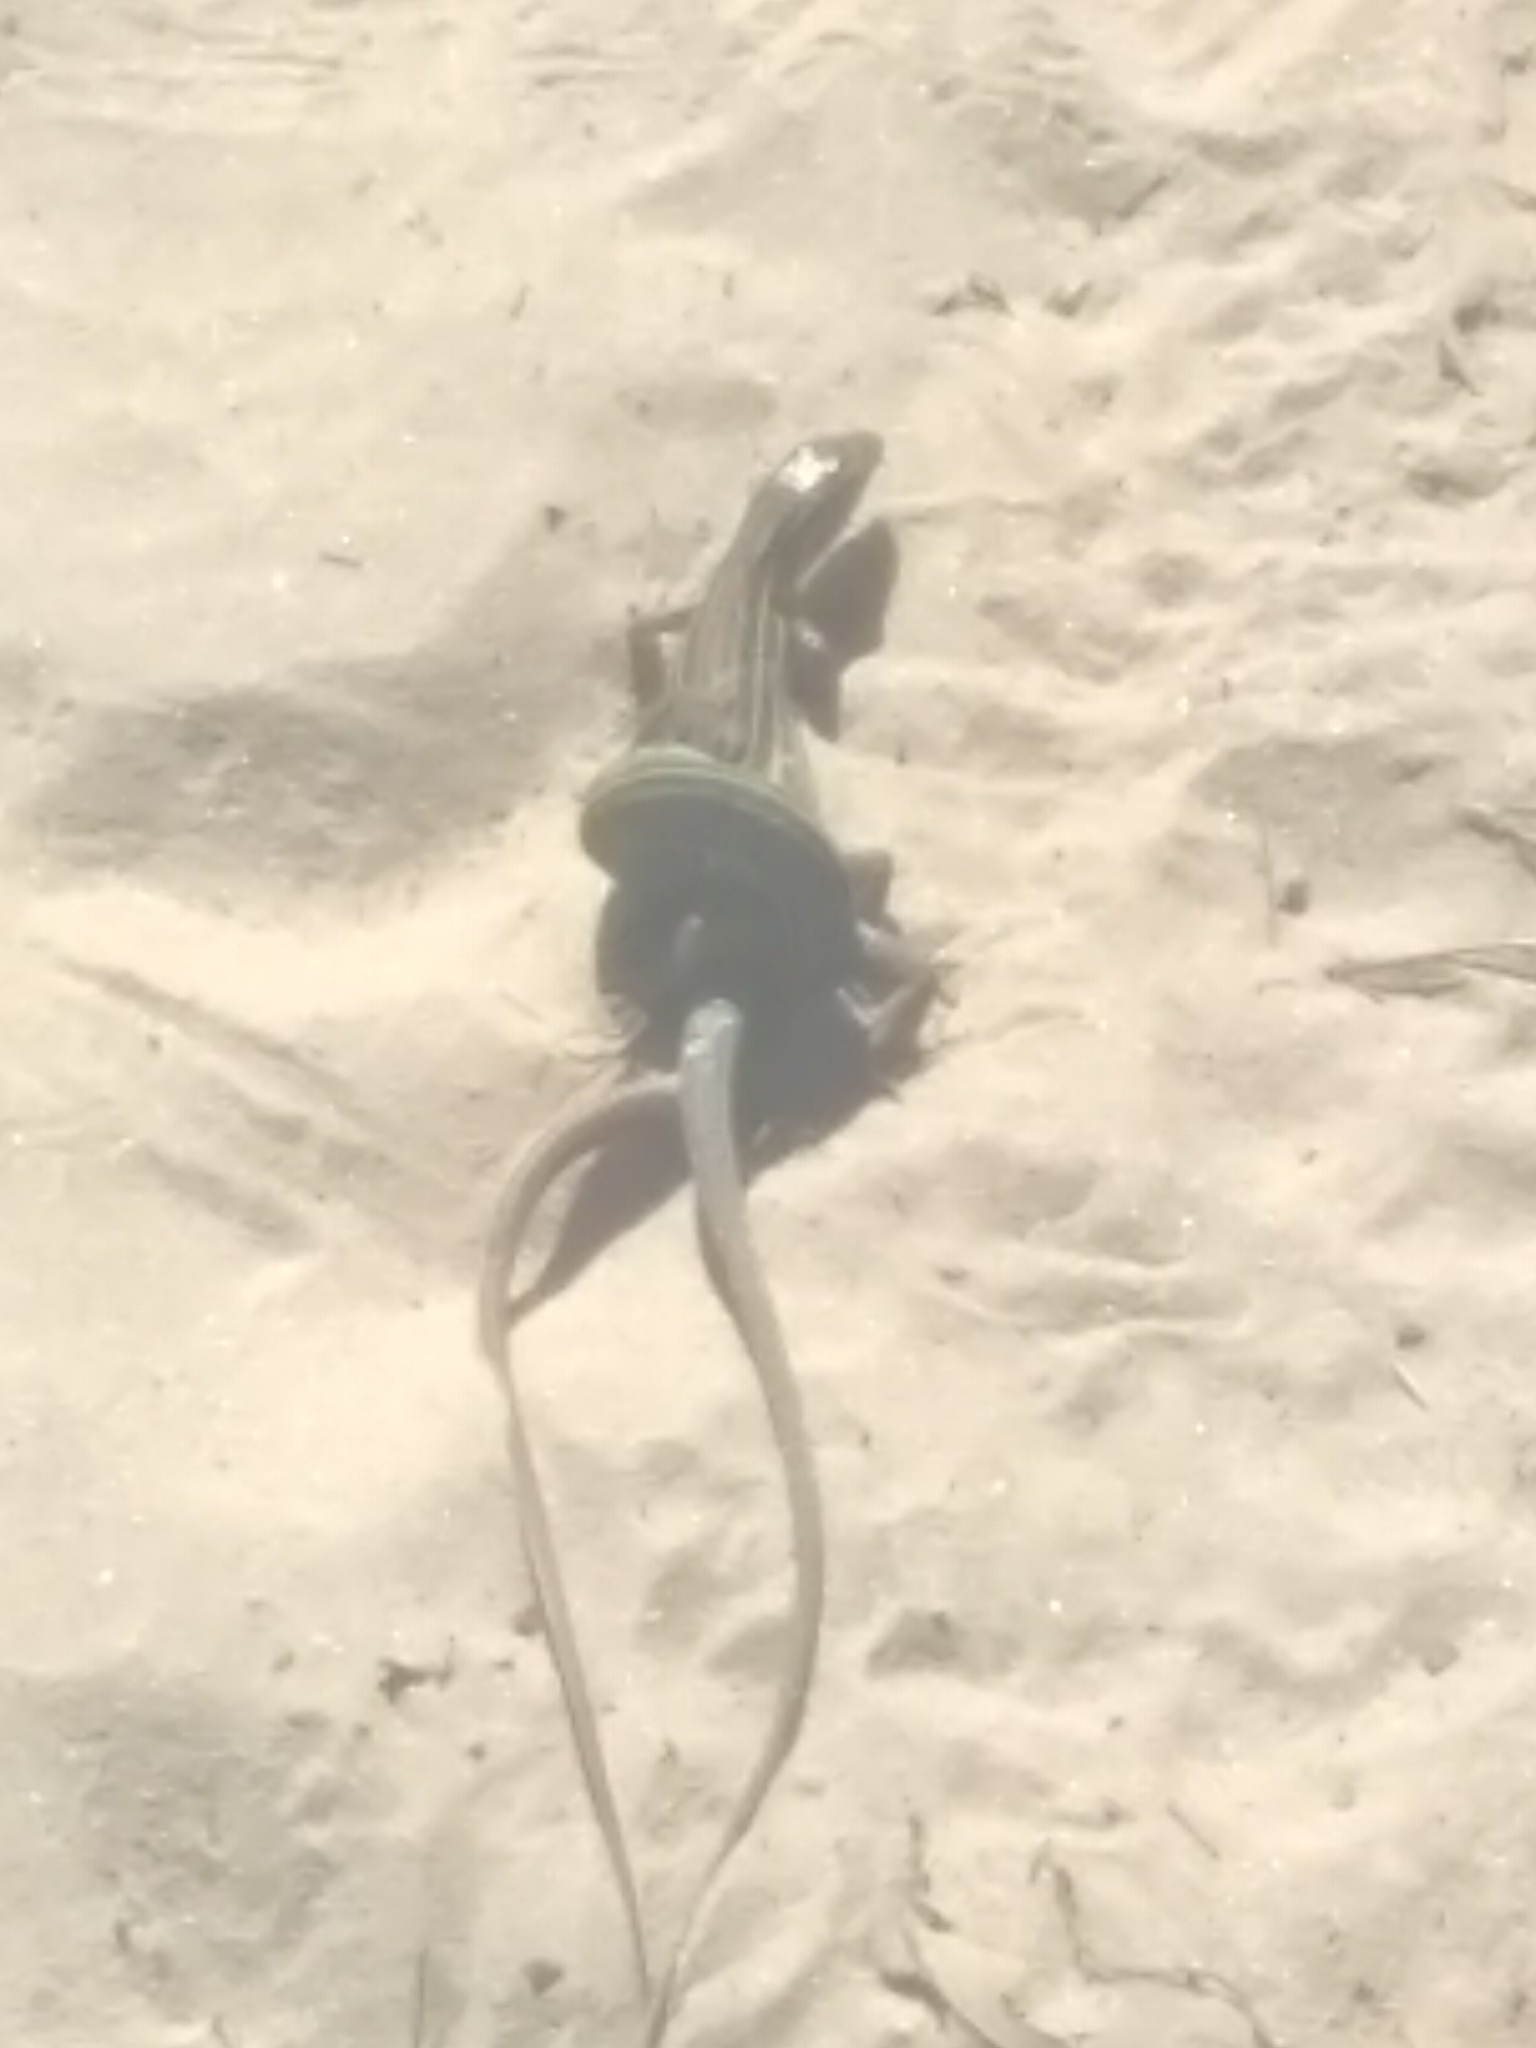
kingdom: Animalia
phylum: Chordata
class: Squamata
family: Teiidae
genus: Aspidoscelis
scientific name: Aspidoscelis gularis
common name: Eastern spotted whiptail
